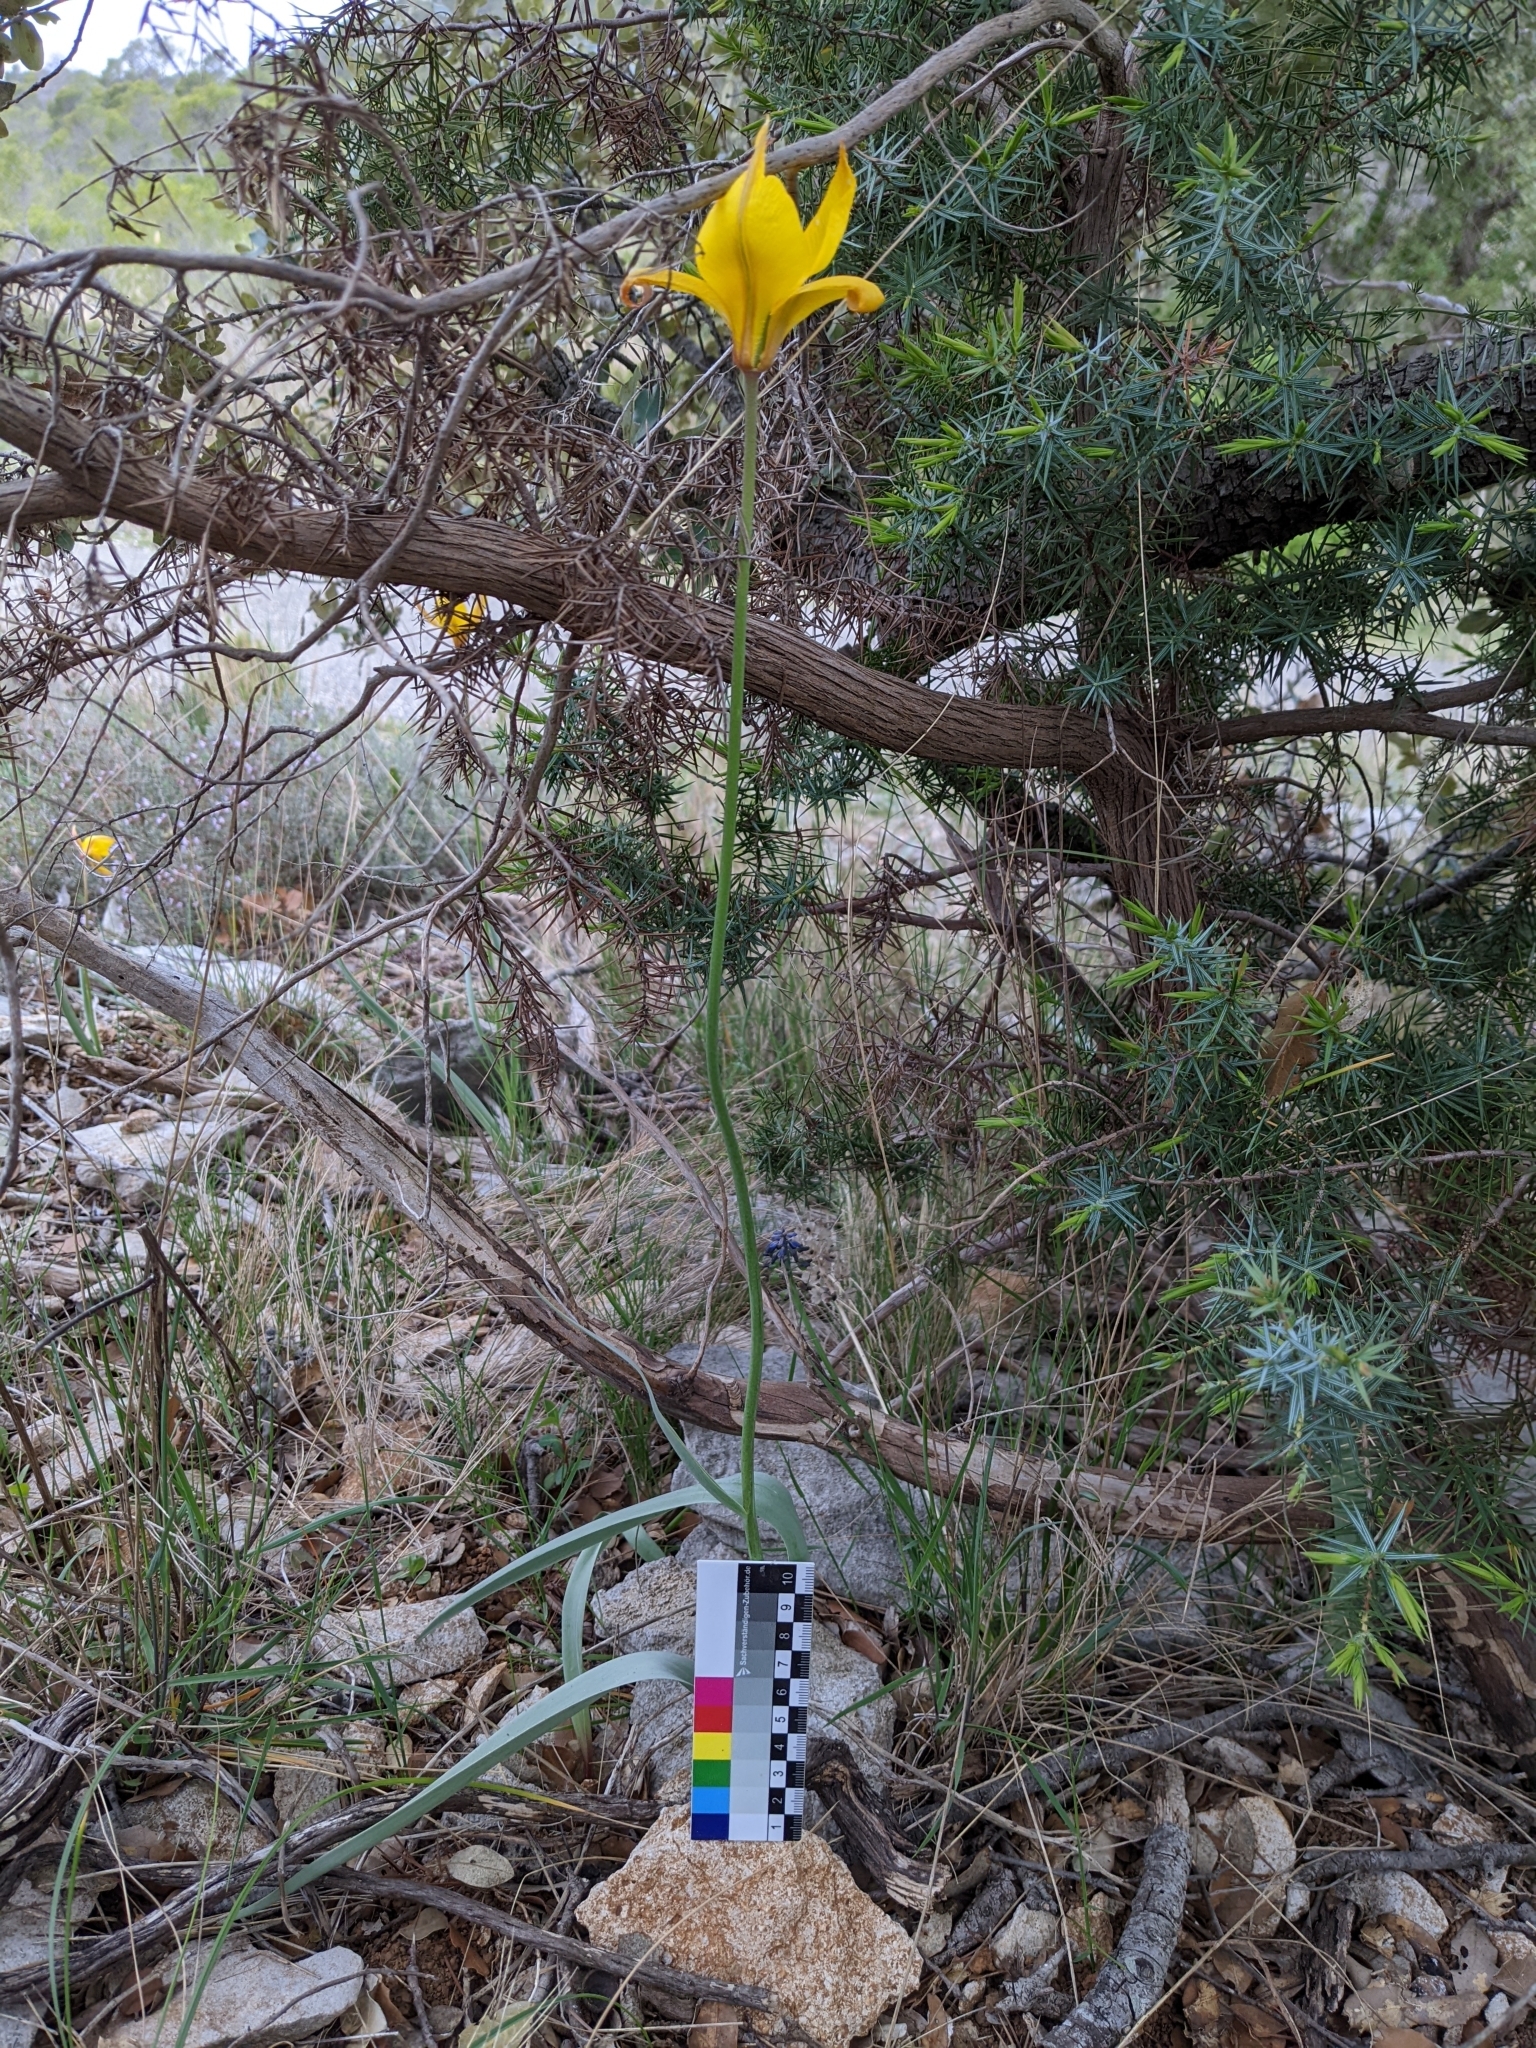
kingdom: Plantae
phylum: Tracheophyta
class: Liliopsida
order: Liliales
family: Liliaceae
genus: Tulipa
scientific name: Tulipa sylvestris
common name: Wild tulip
